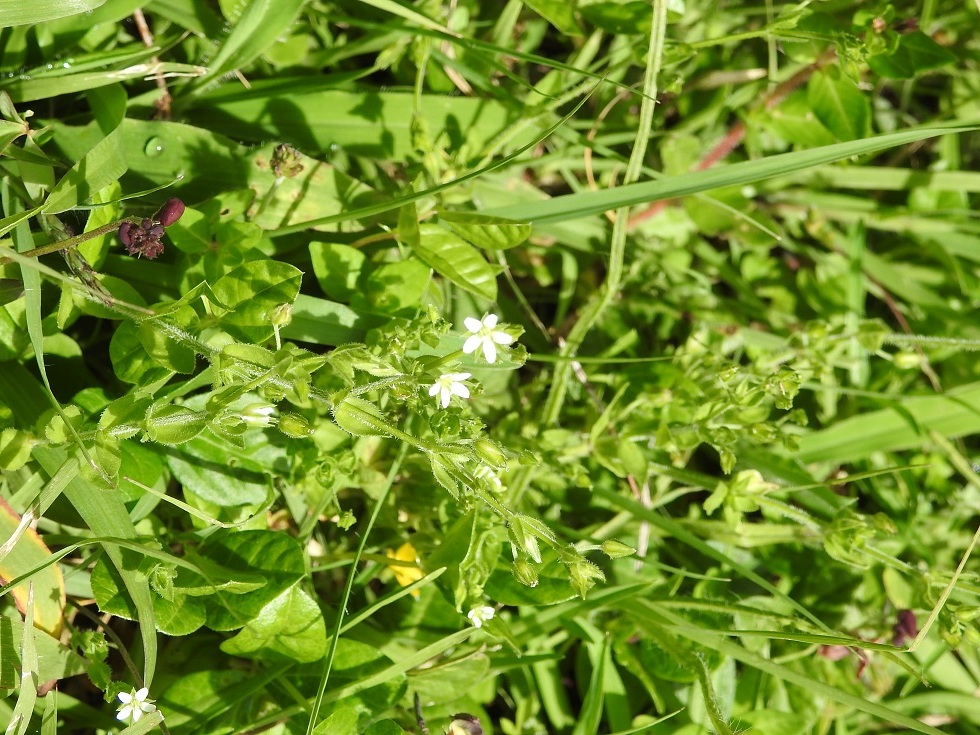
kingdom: Plantae
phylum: Tracheophyta
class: Magnoliopsida
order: Caryophyllales
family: Caryophyllaceae
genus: Arenaria
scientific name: Arenaria lanuginosa
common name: Spread sandwort
